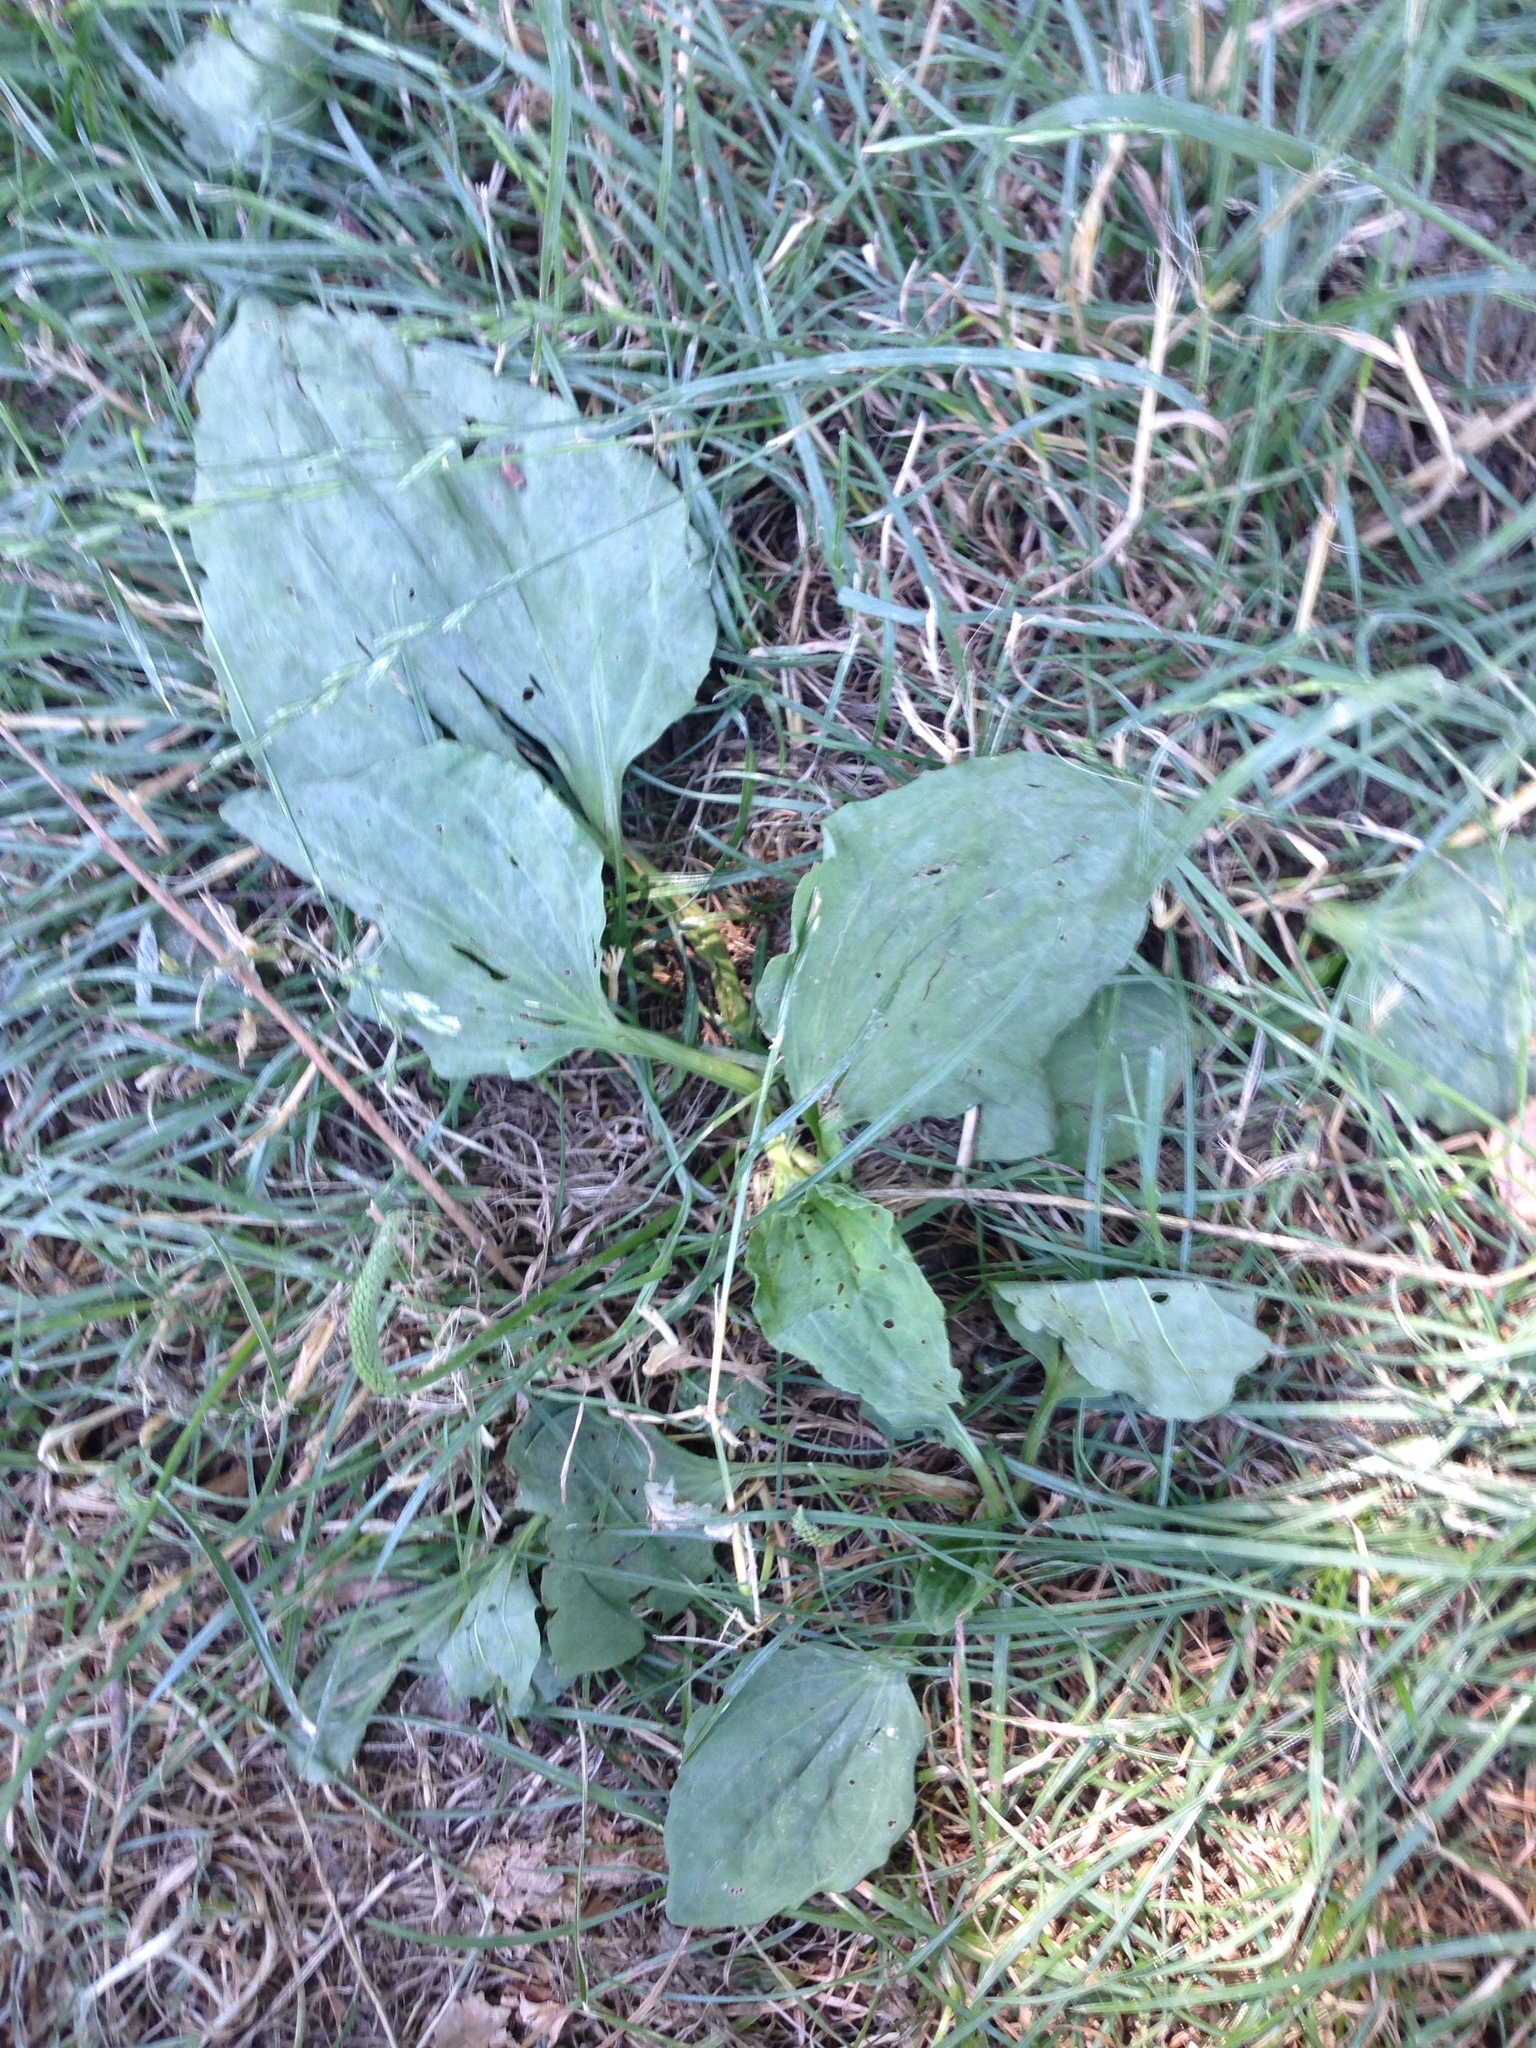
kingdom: Plantae
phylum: Tracheophyta
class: Magnoliopsida
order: Lamiales
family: Plantaginaceae
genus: Plantago
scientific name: Plantago major
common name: Common plantain
